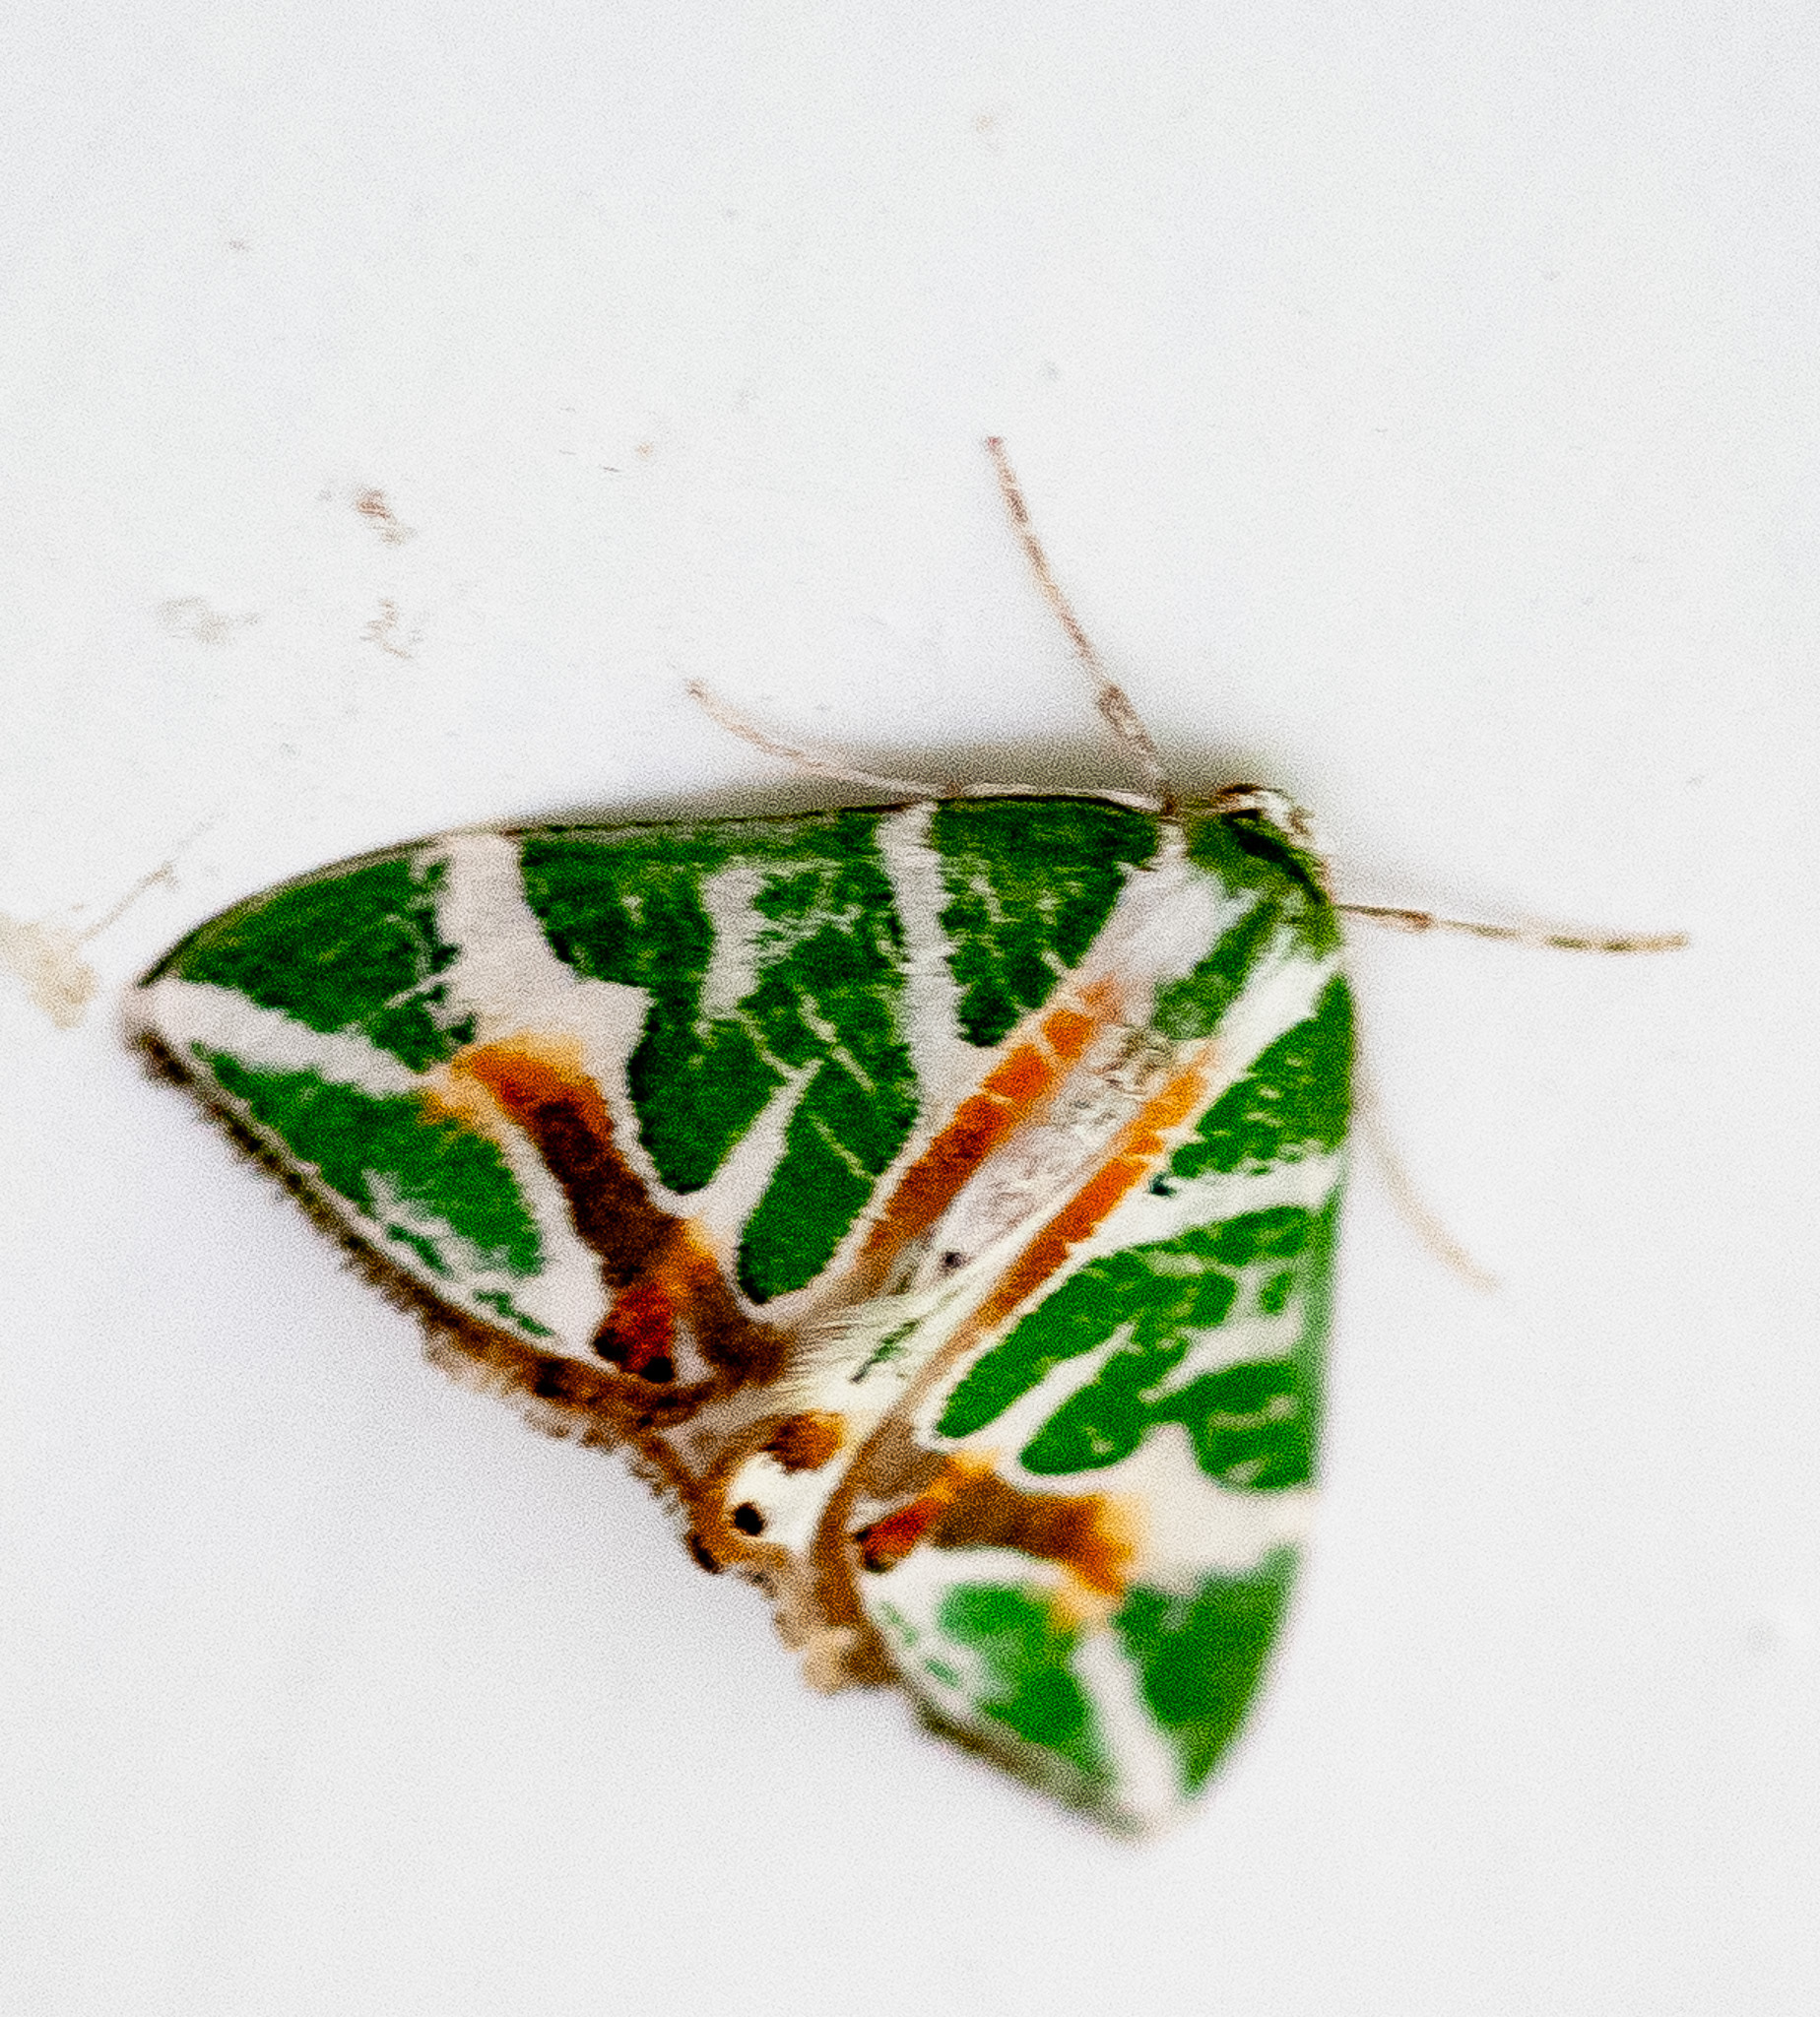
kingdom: Animalia
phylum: Arthropoda
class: Insecta
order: Lepidoptera
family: Geometridae
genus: Chlorodes
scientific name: Chlorodes boisduvalaria
